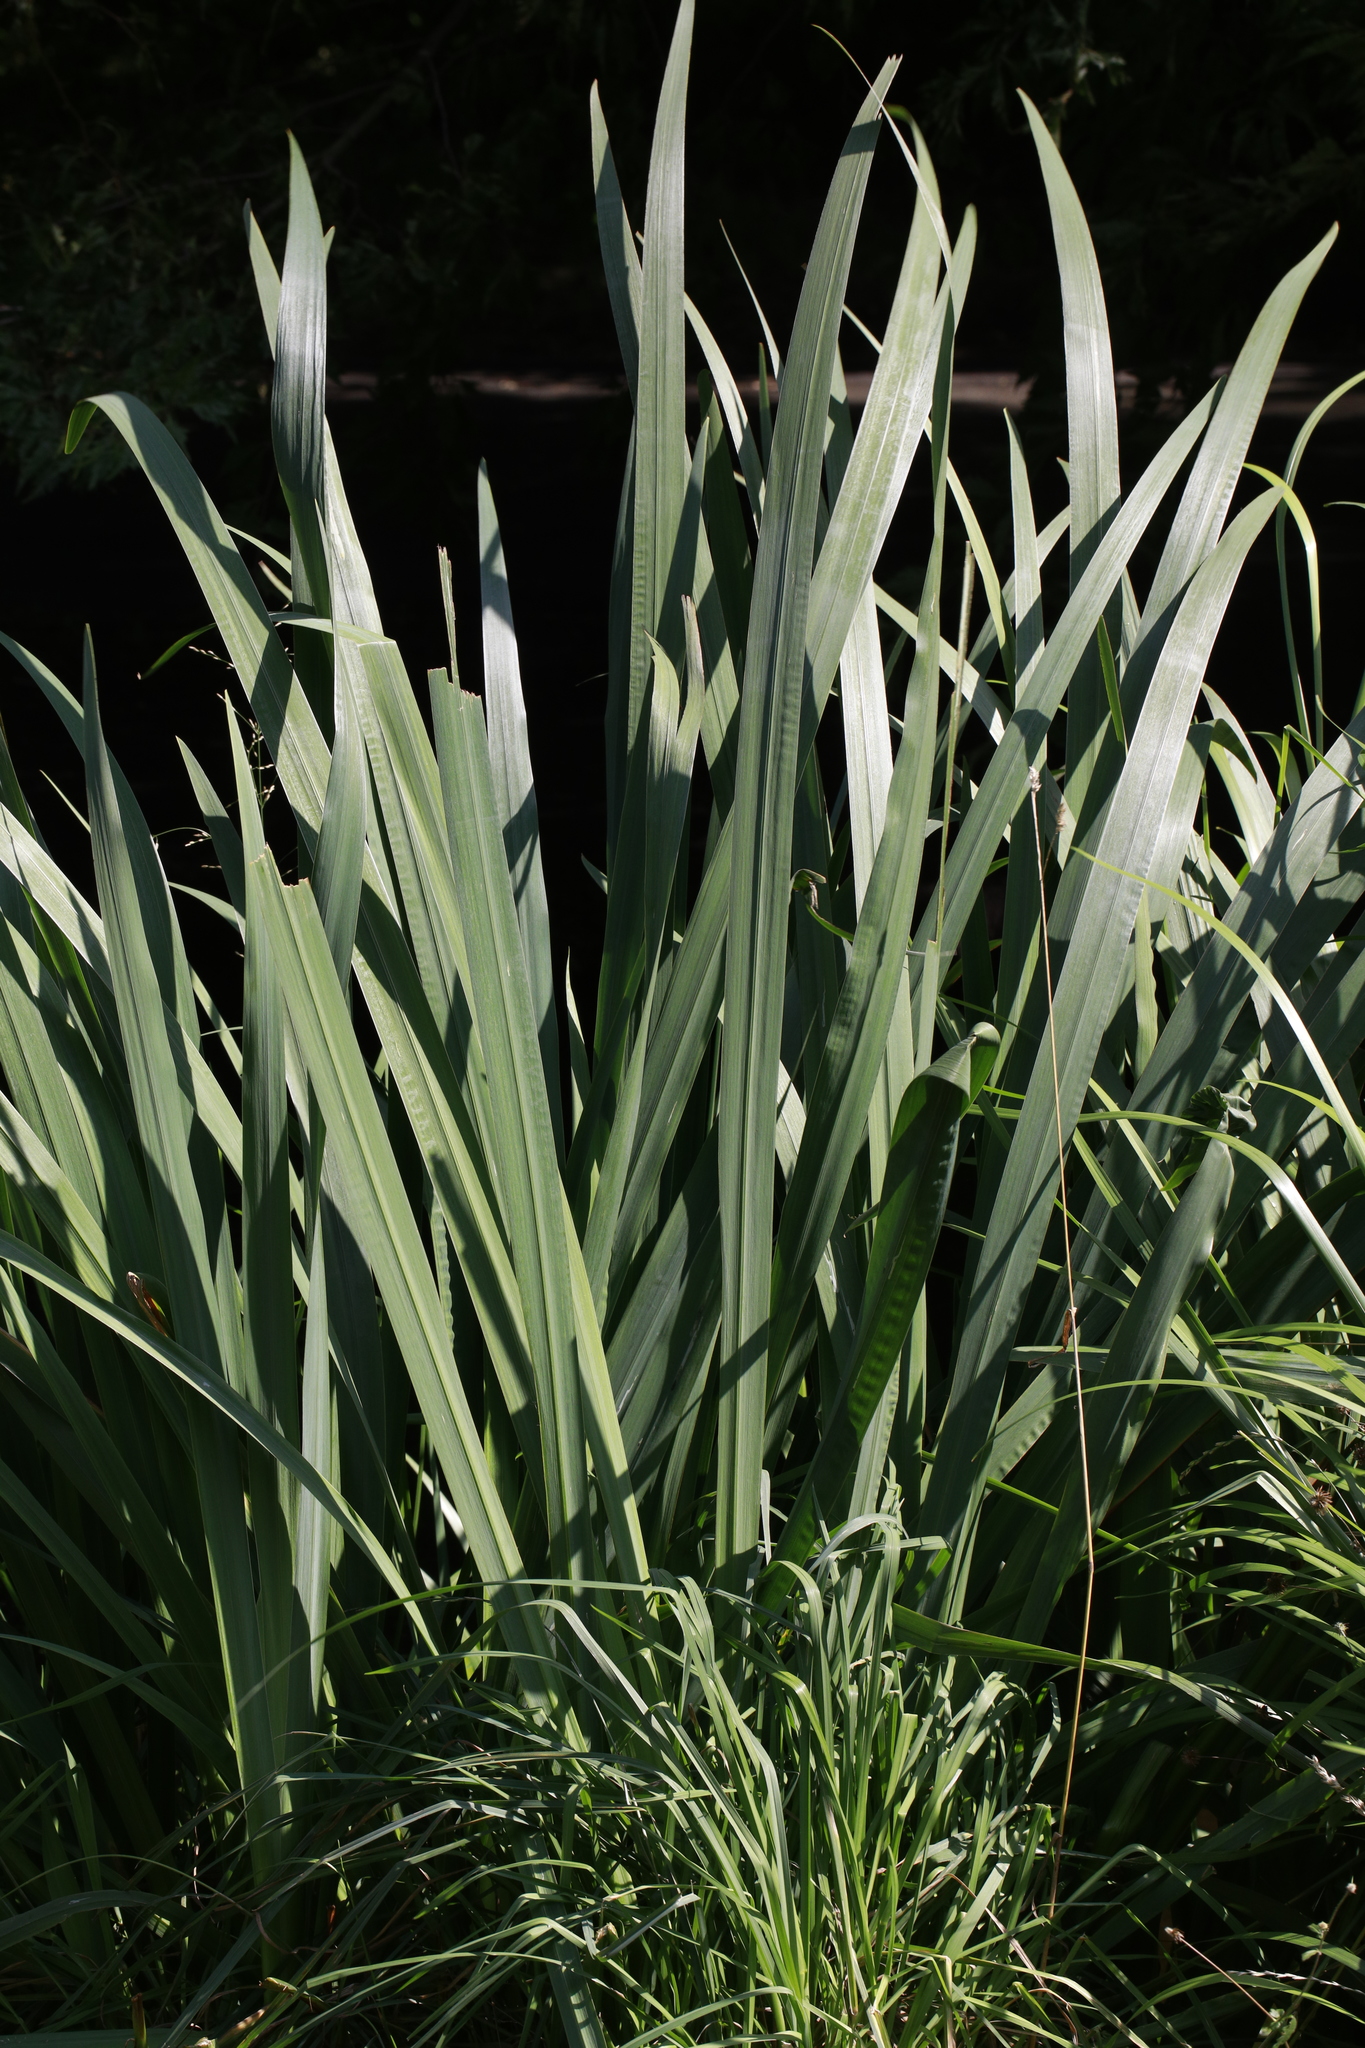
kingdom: Plantae
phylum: Tracheophyta
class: Liliopsida
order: Asparagales
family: Iridaceae
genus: Iris
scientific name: Iris pseudacorus
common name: Yellow flag
